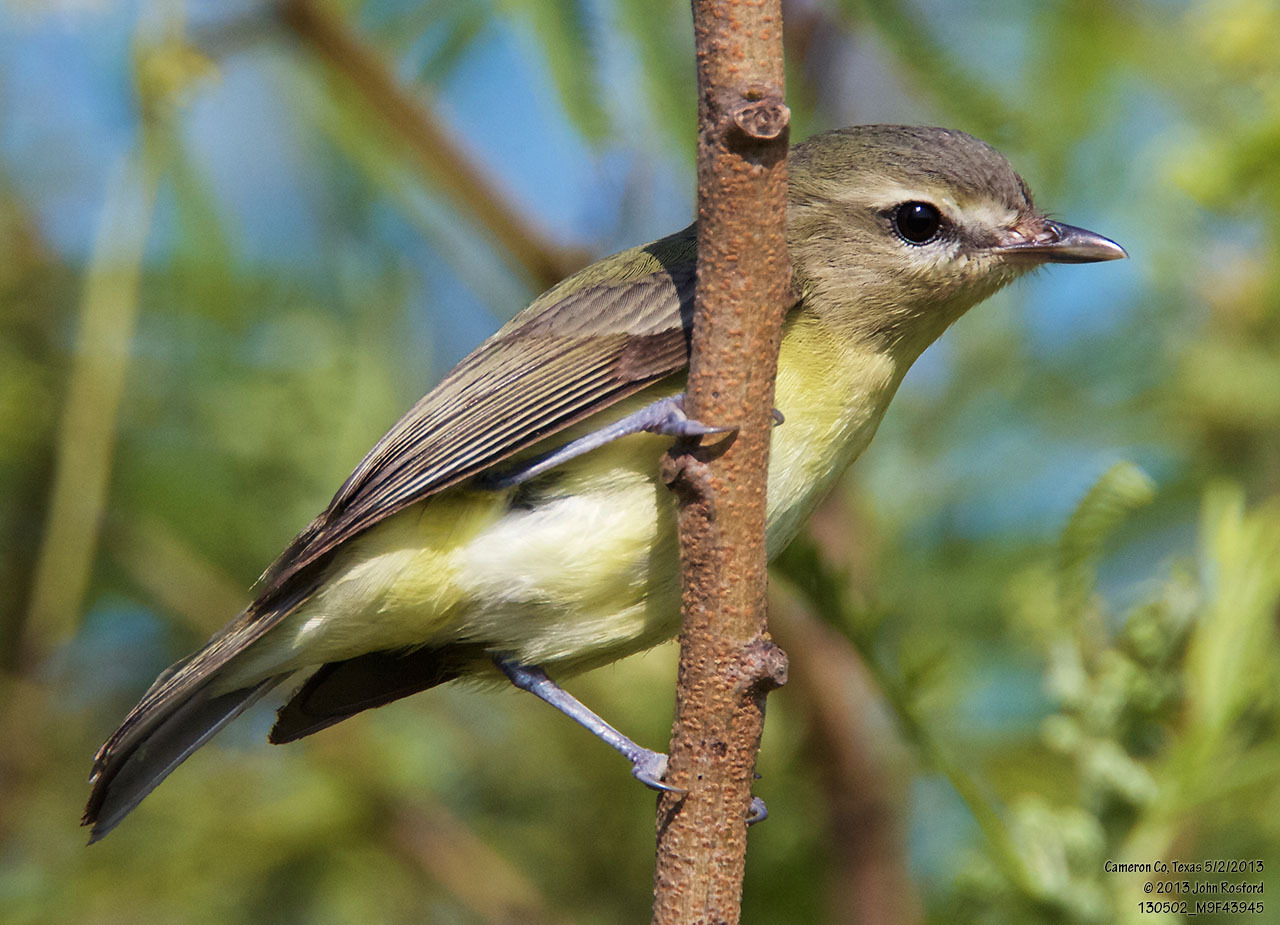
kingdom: Animalia
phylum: Chordata
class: Aves
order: Passeriformes
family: Vireonidae
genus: Vireo
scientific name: Vireo philadelphicus
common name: Philadelphia vireo
